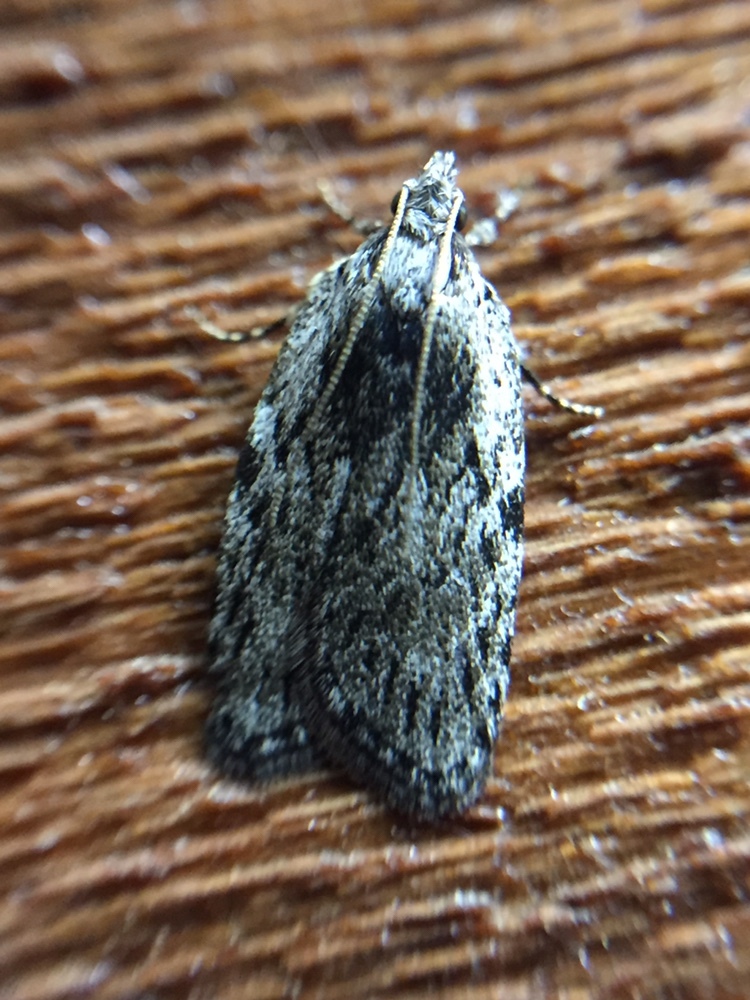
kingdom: Animalia
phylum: Arthropoda
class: Insecta
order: Lepidoptera
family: Depressariidae
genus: Phaeosaces
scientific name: Phaeosaces compsotypa
